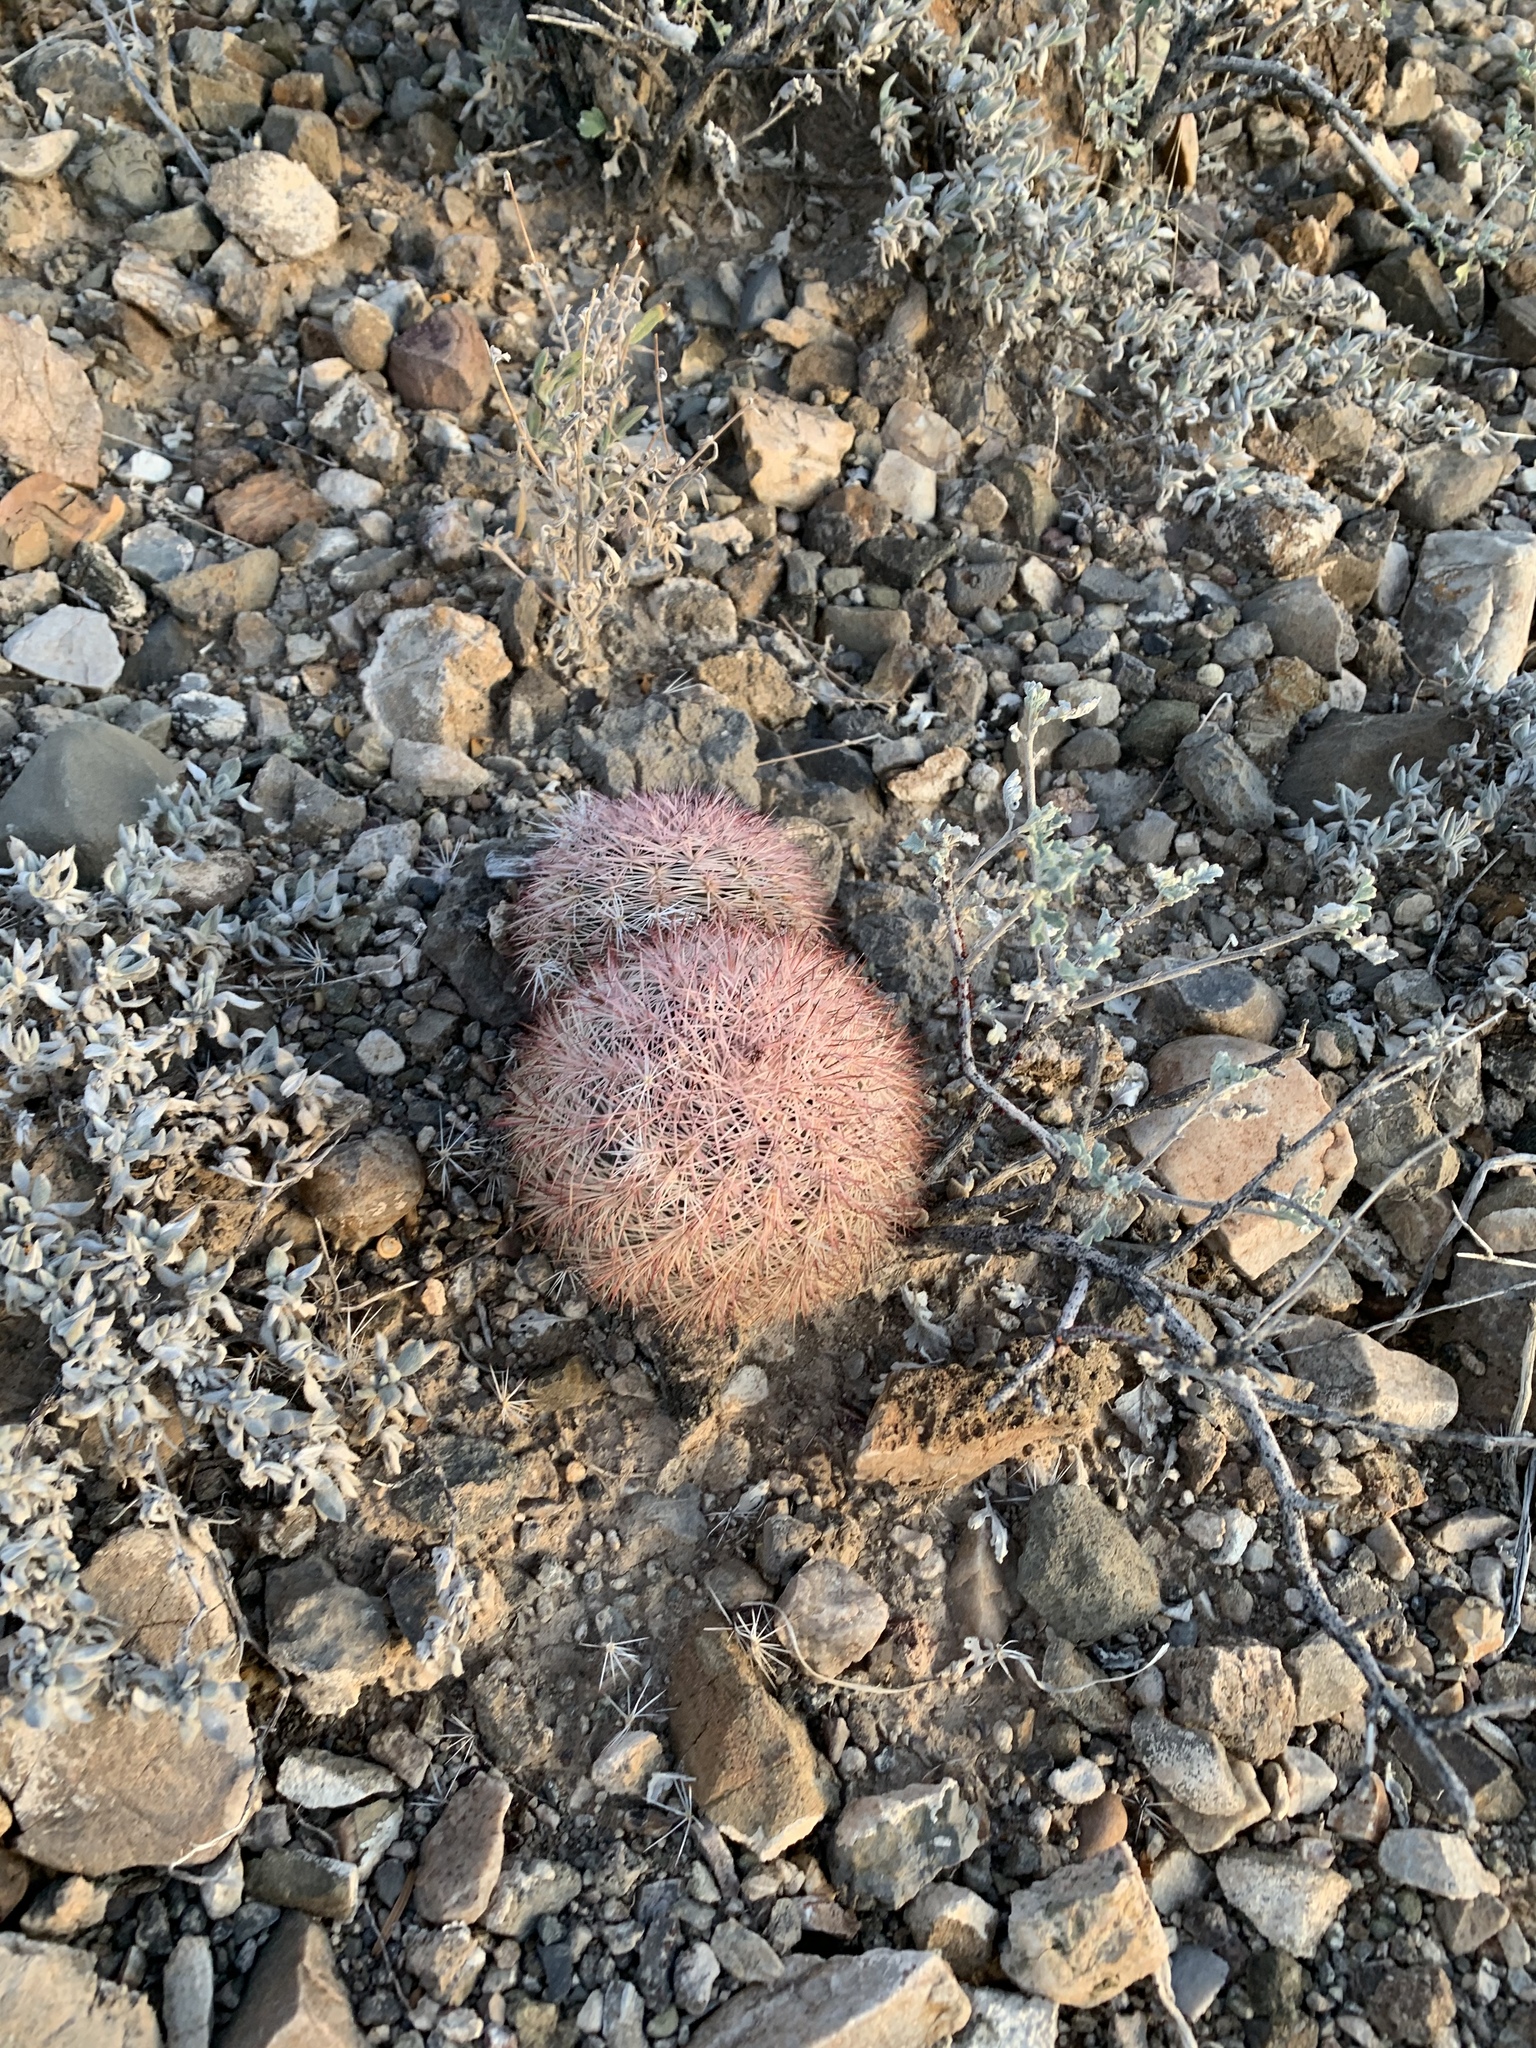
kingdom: Plantae
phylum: Tracheophyta
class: Magnoliopsida
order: Caryophyllales
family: Cactaceae
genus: Echinocereus
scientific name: Echinocereus dasyacanthus
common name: Spiny hedgehog cactus
